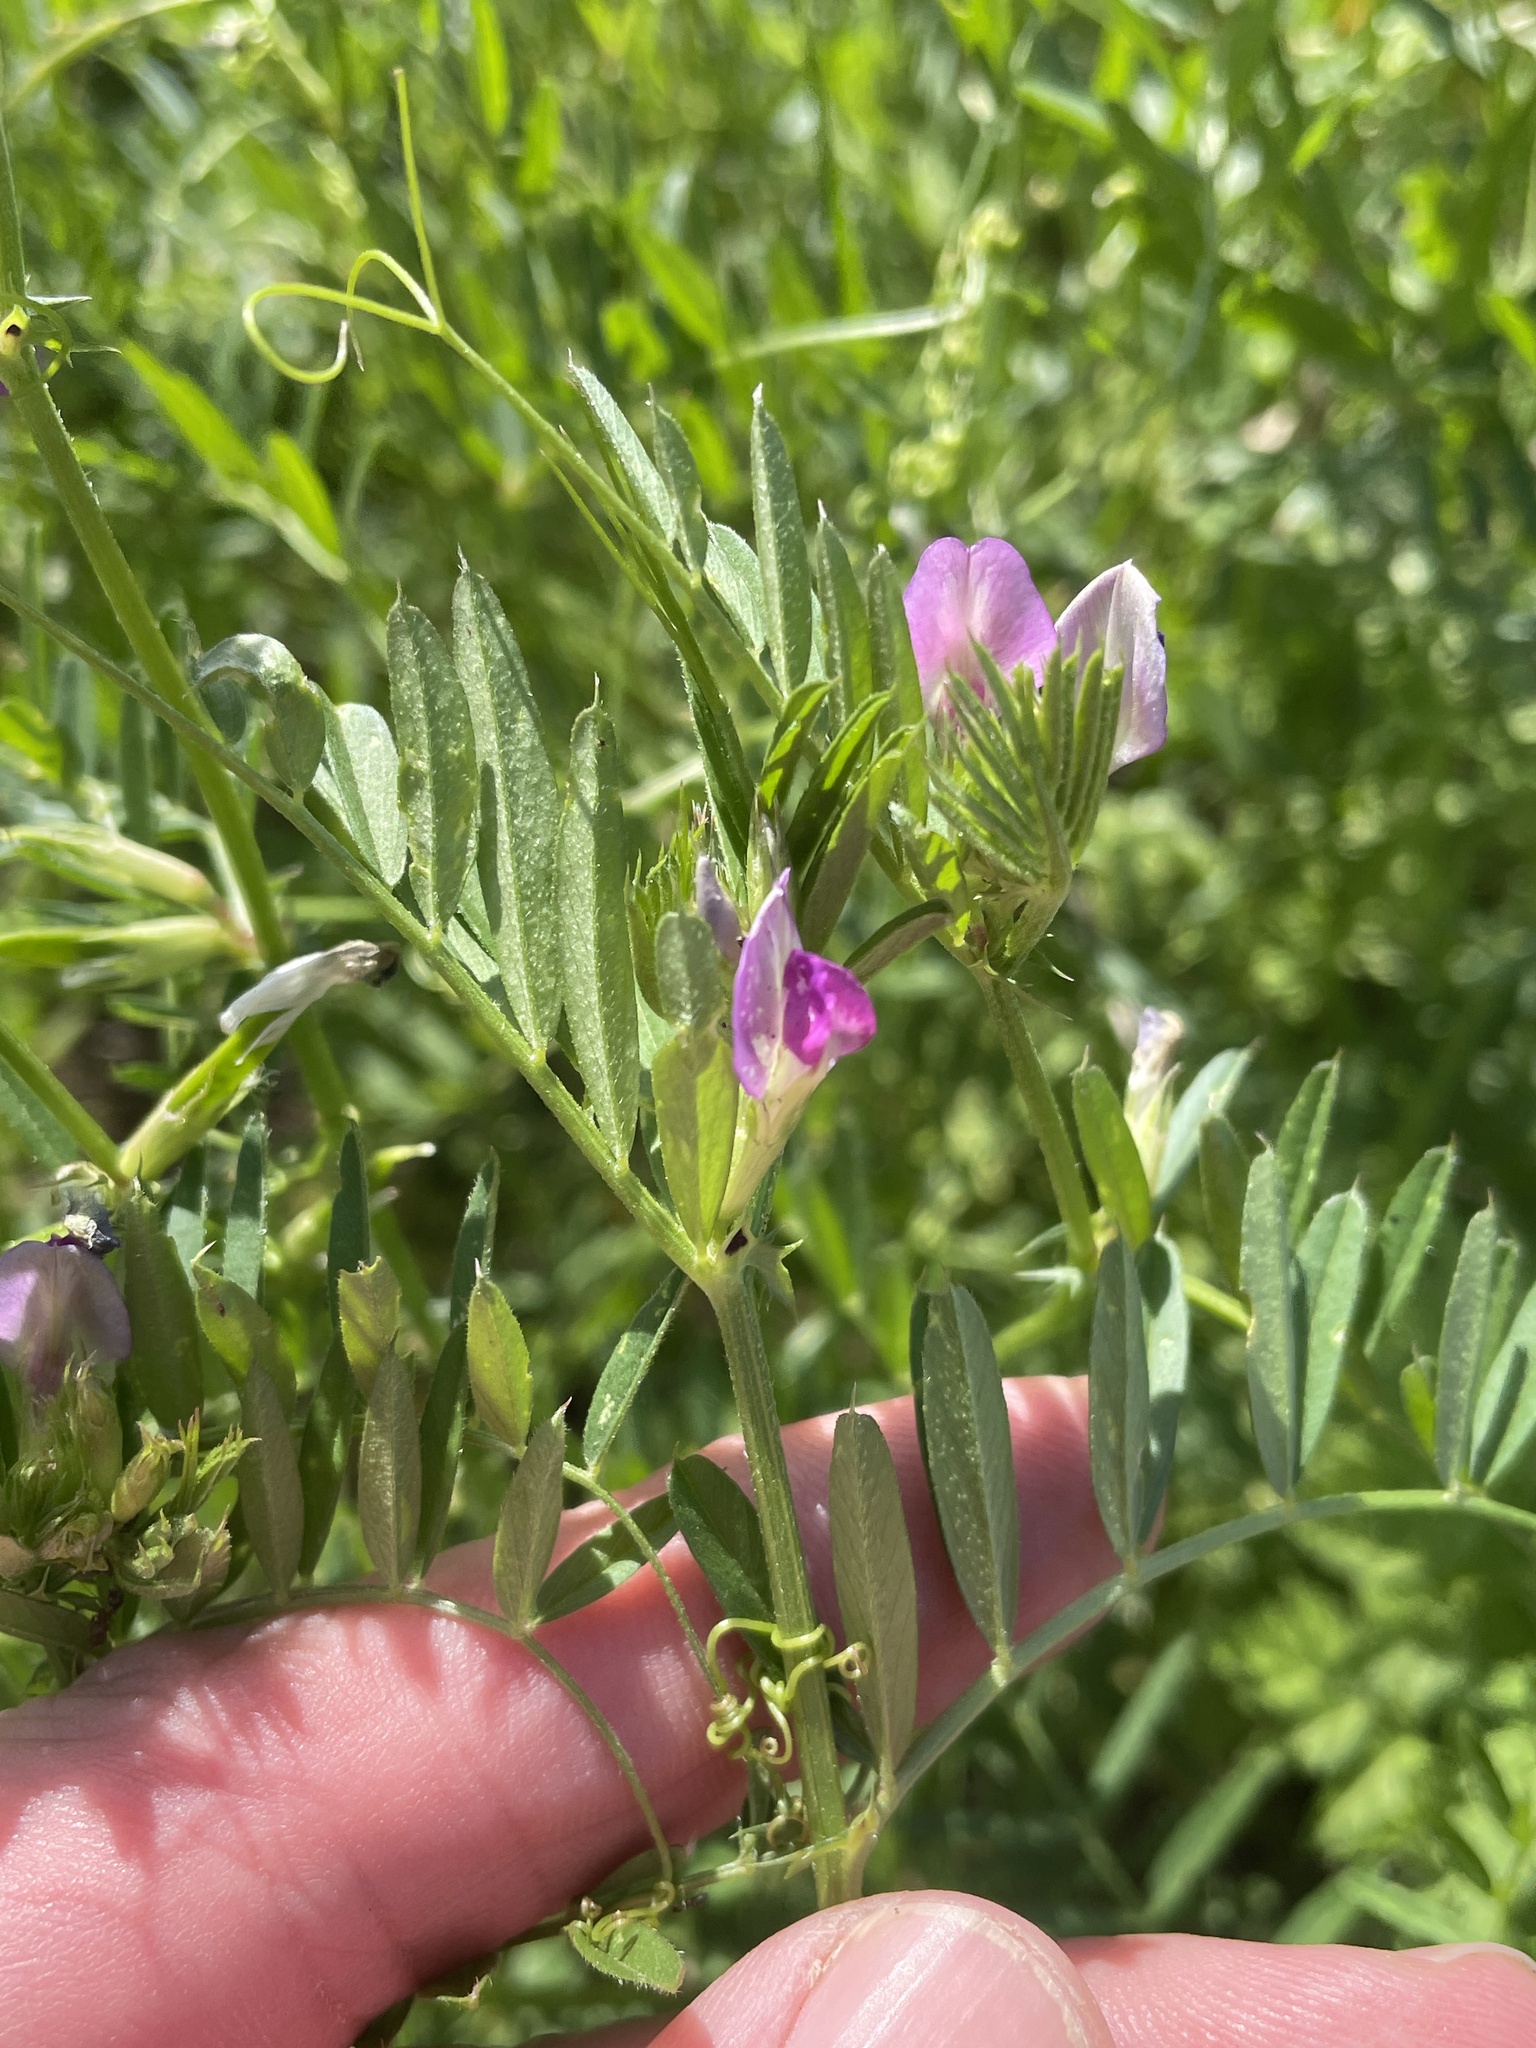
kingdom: Plantae
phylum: Tracheophyta
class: Magnoliopsida
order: Fabales
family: Fabaceae
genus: Vicia
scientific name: Vicia sativa
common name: Garden vetch
